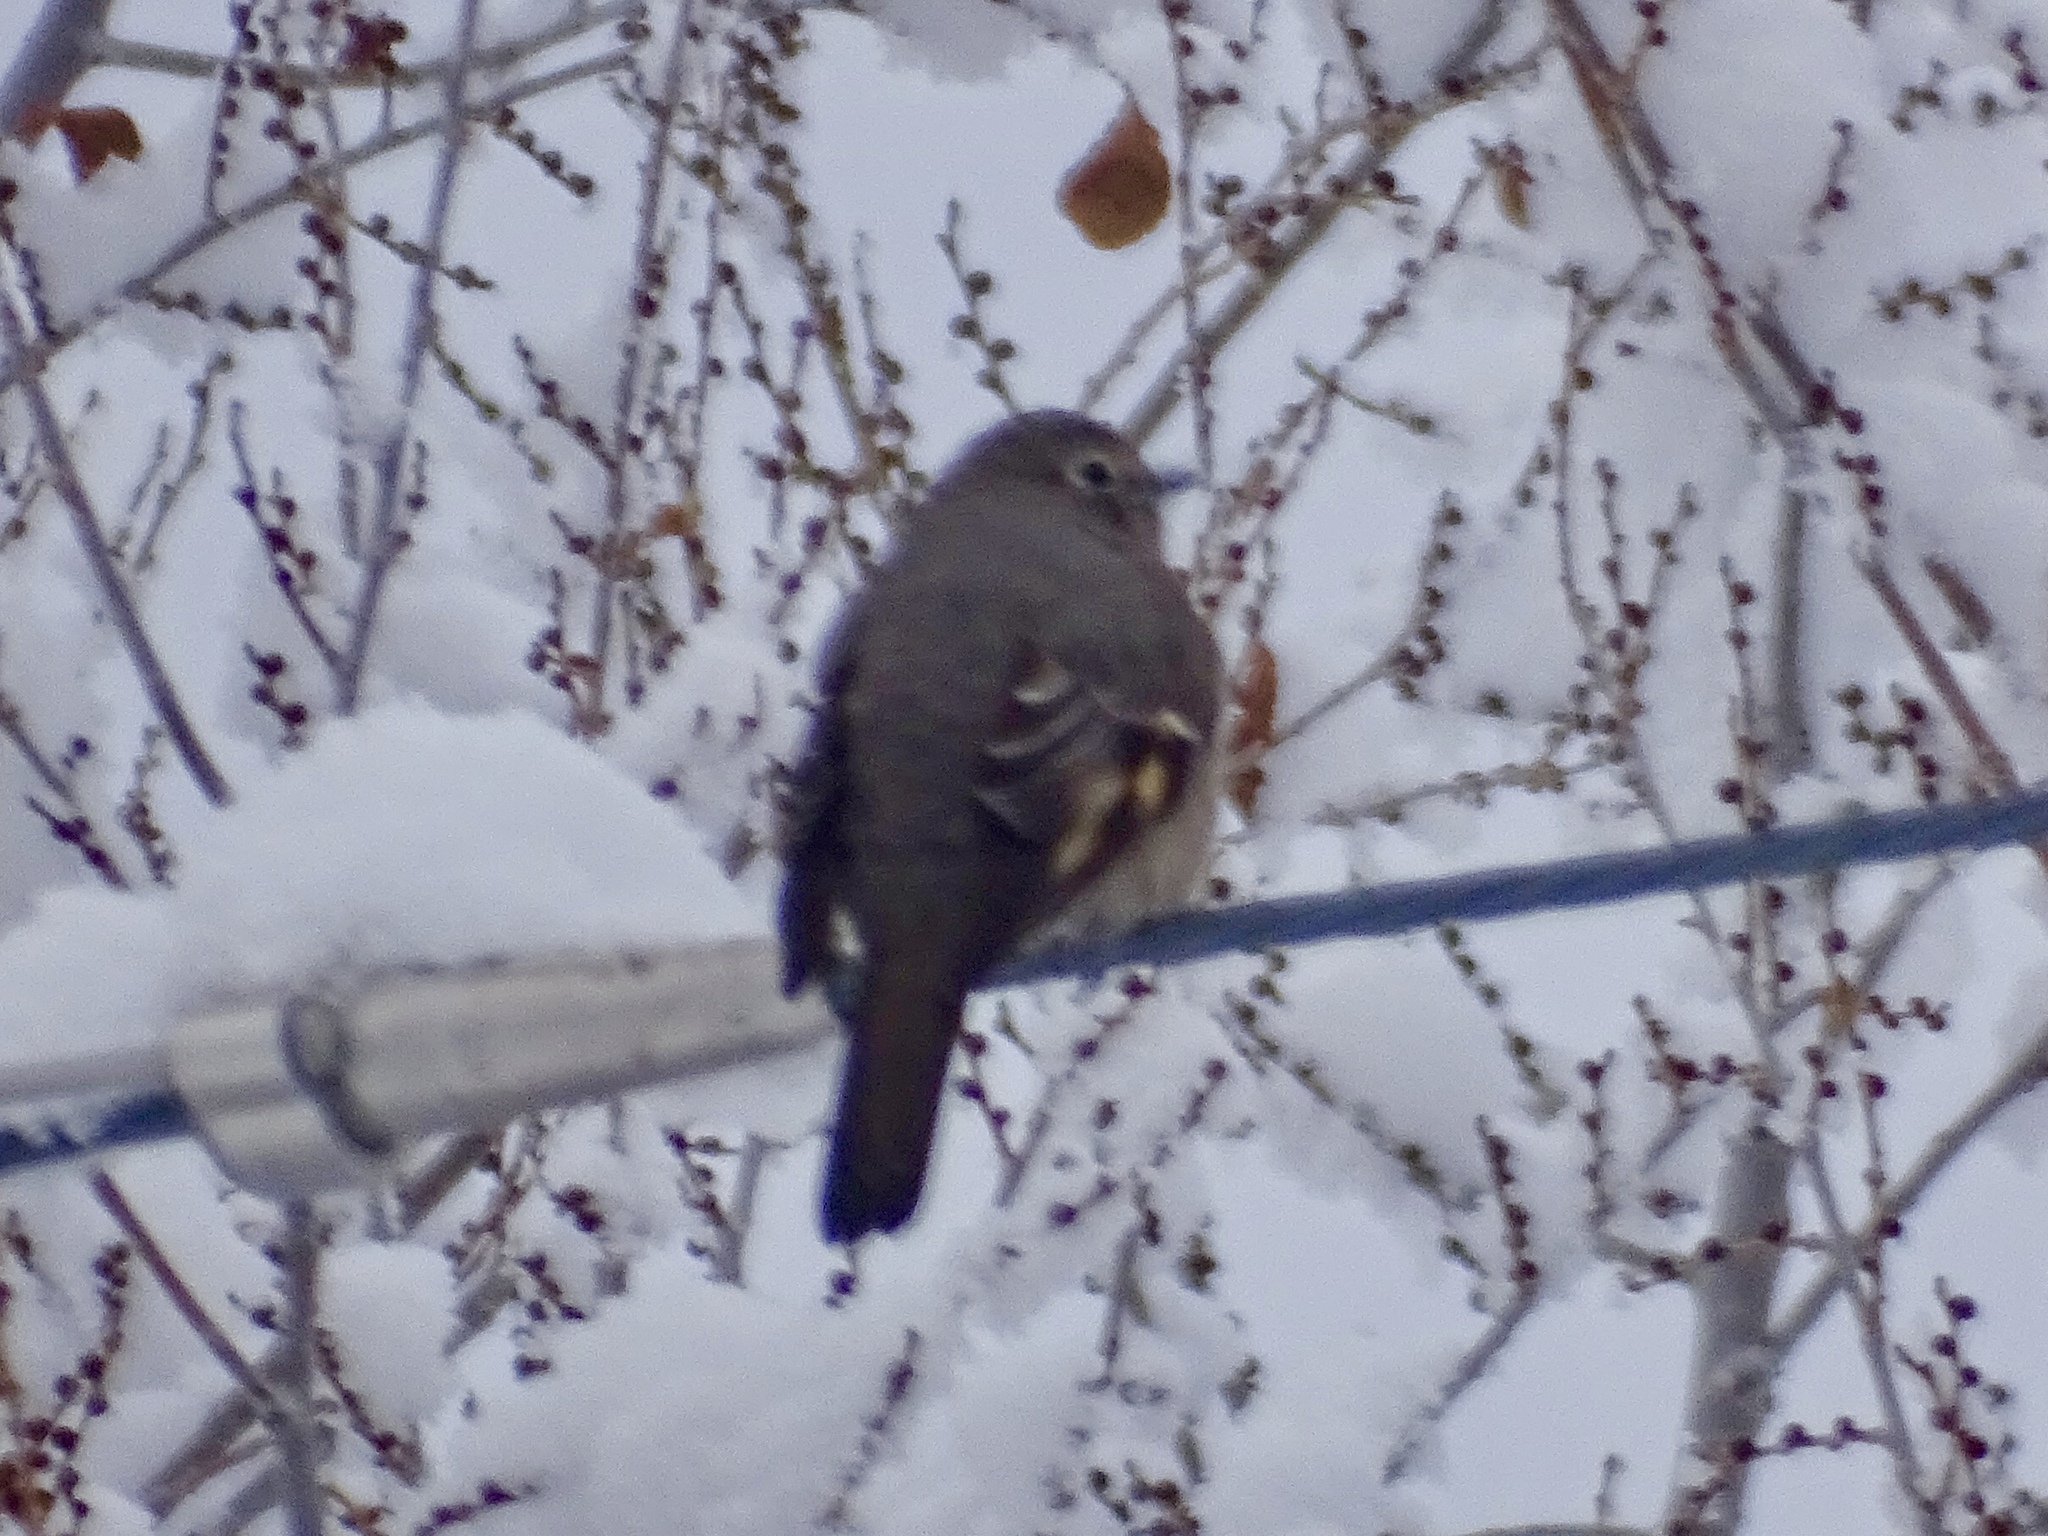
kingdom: Animalia
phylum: Chordata
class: Aves
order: Passeriformes
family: Turdidae
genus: Myadestes
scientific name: Myadestes townsendi
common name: Townsend's solitaire
